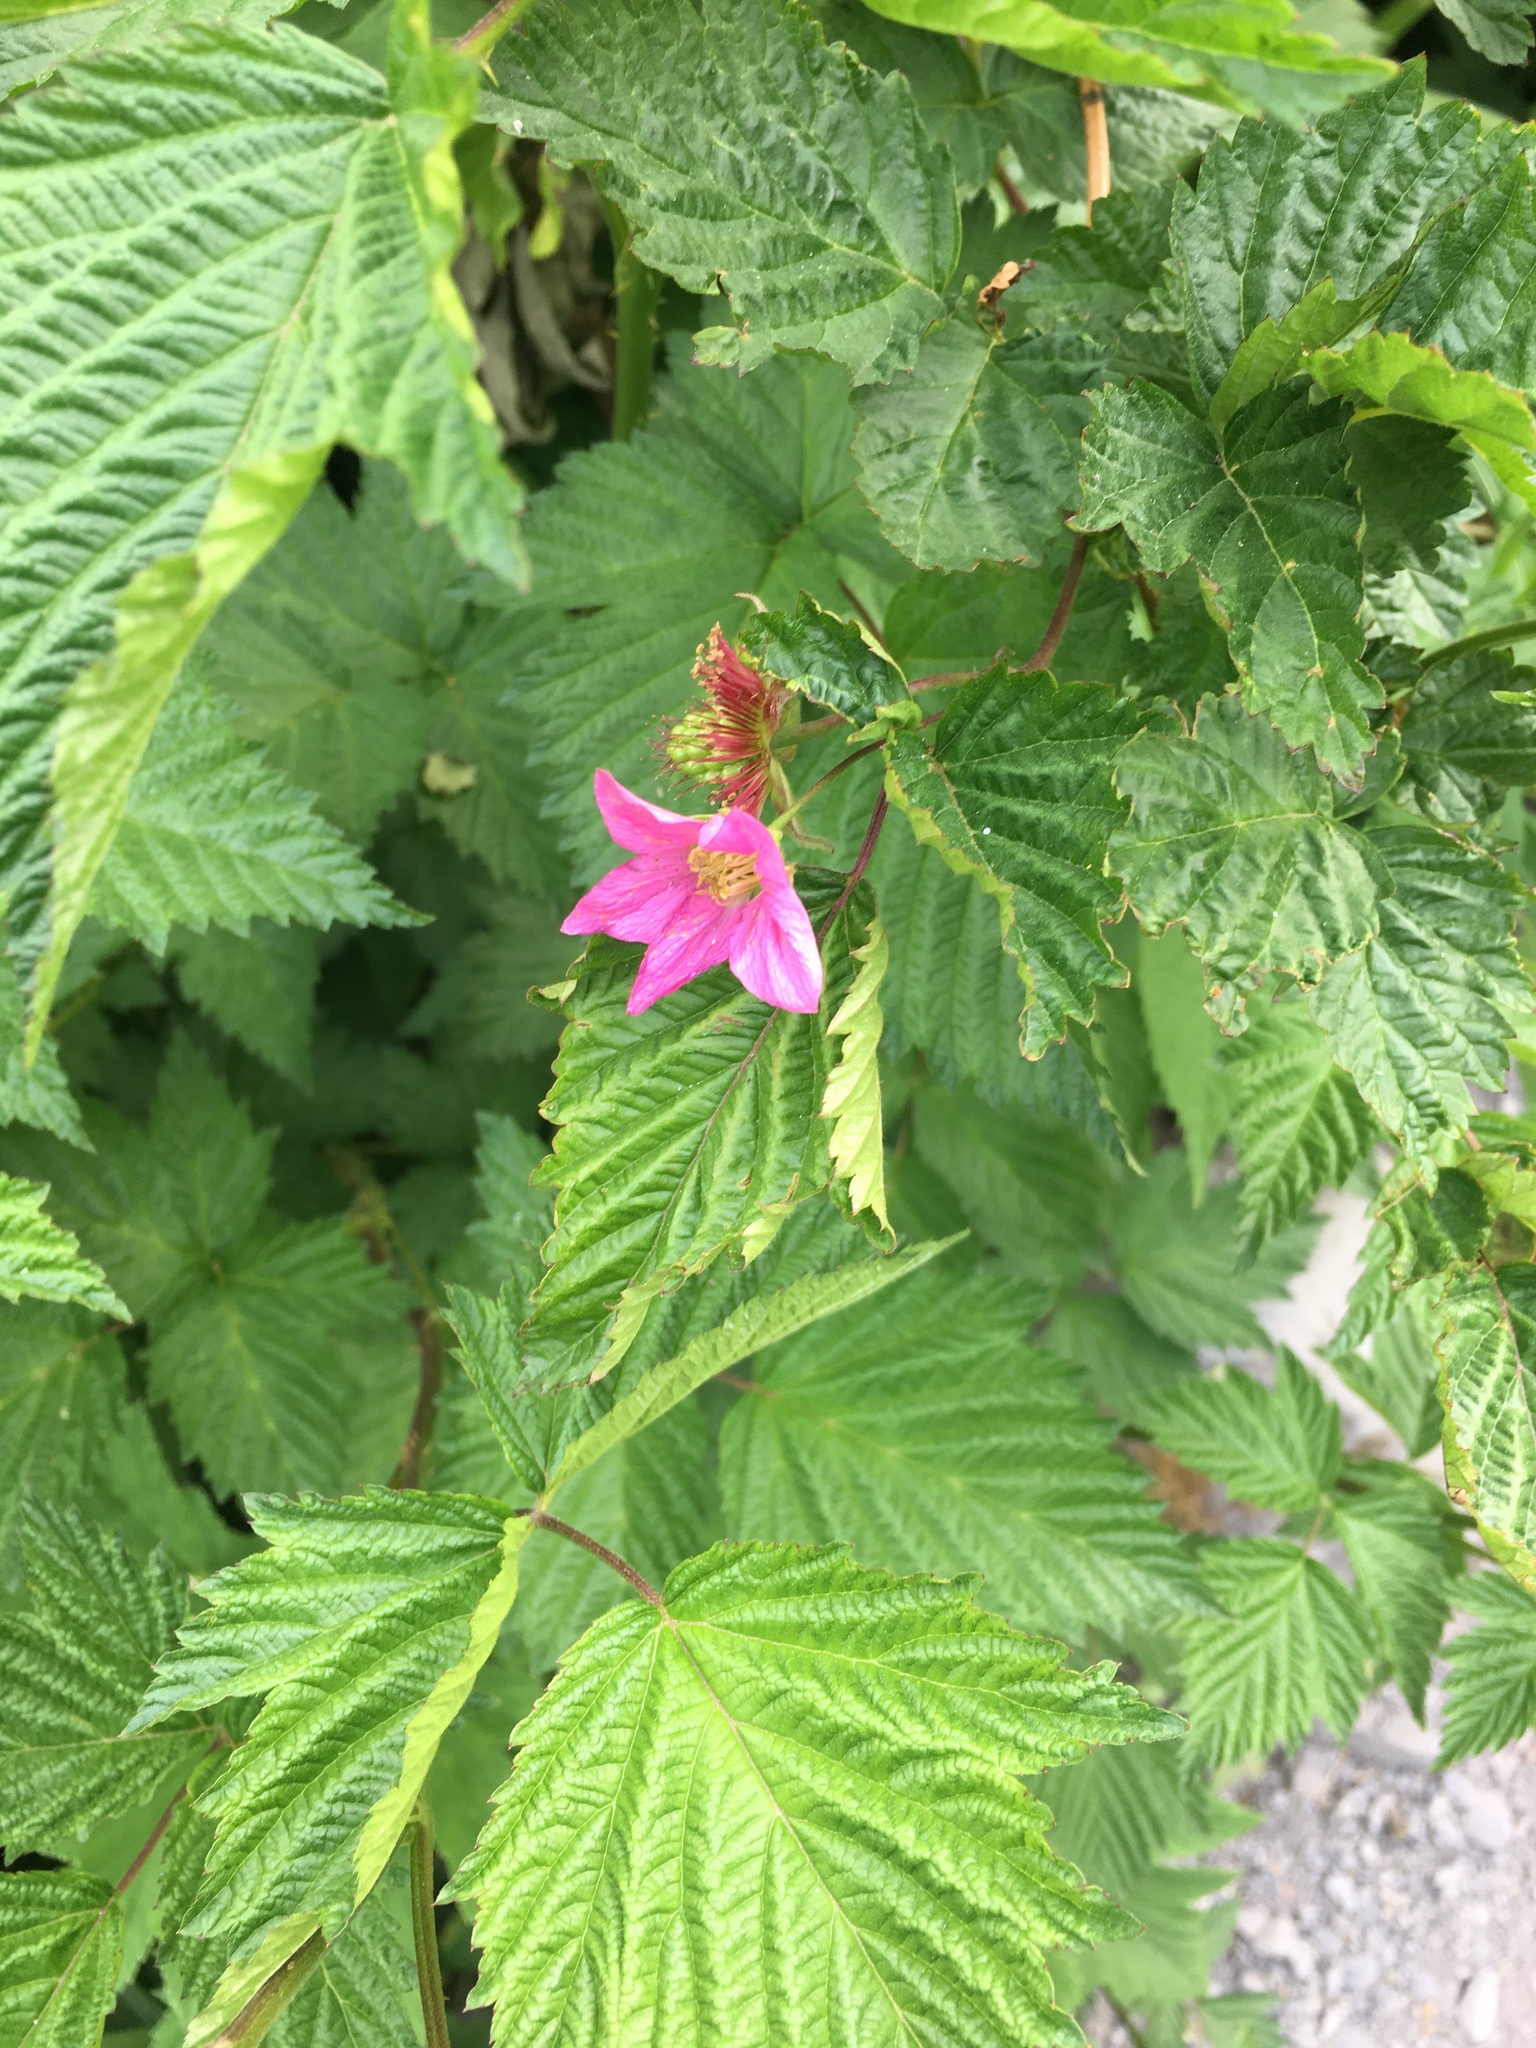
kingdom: Plantae
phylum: Tracheophyta
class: Magnoliopsida
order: Rosales
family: Rosaceae
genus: Rubus
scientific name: Rubus spectabilis
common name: Salmonberry
